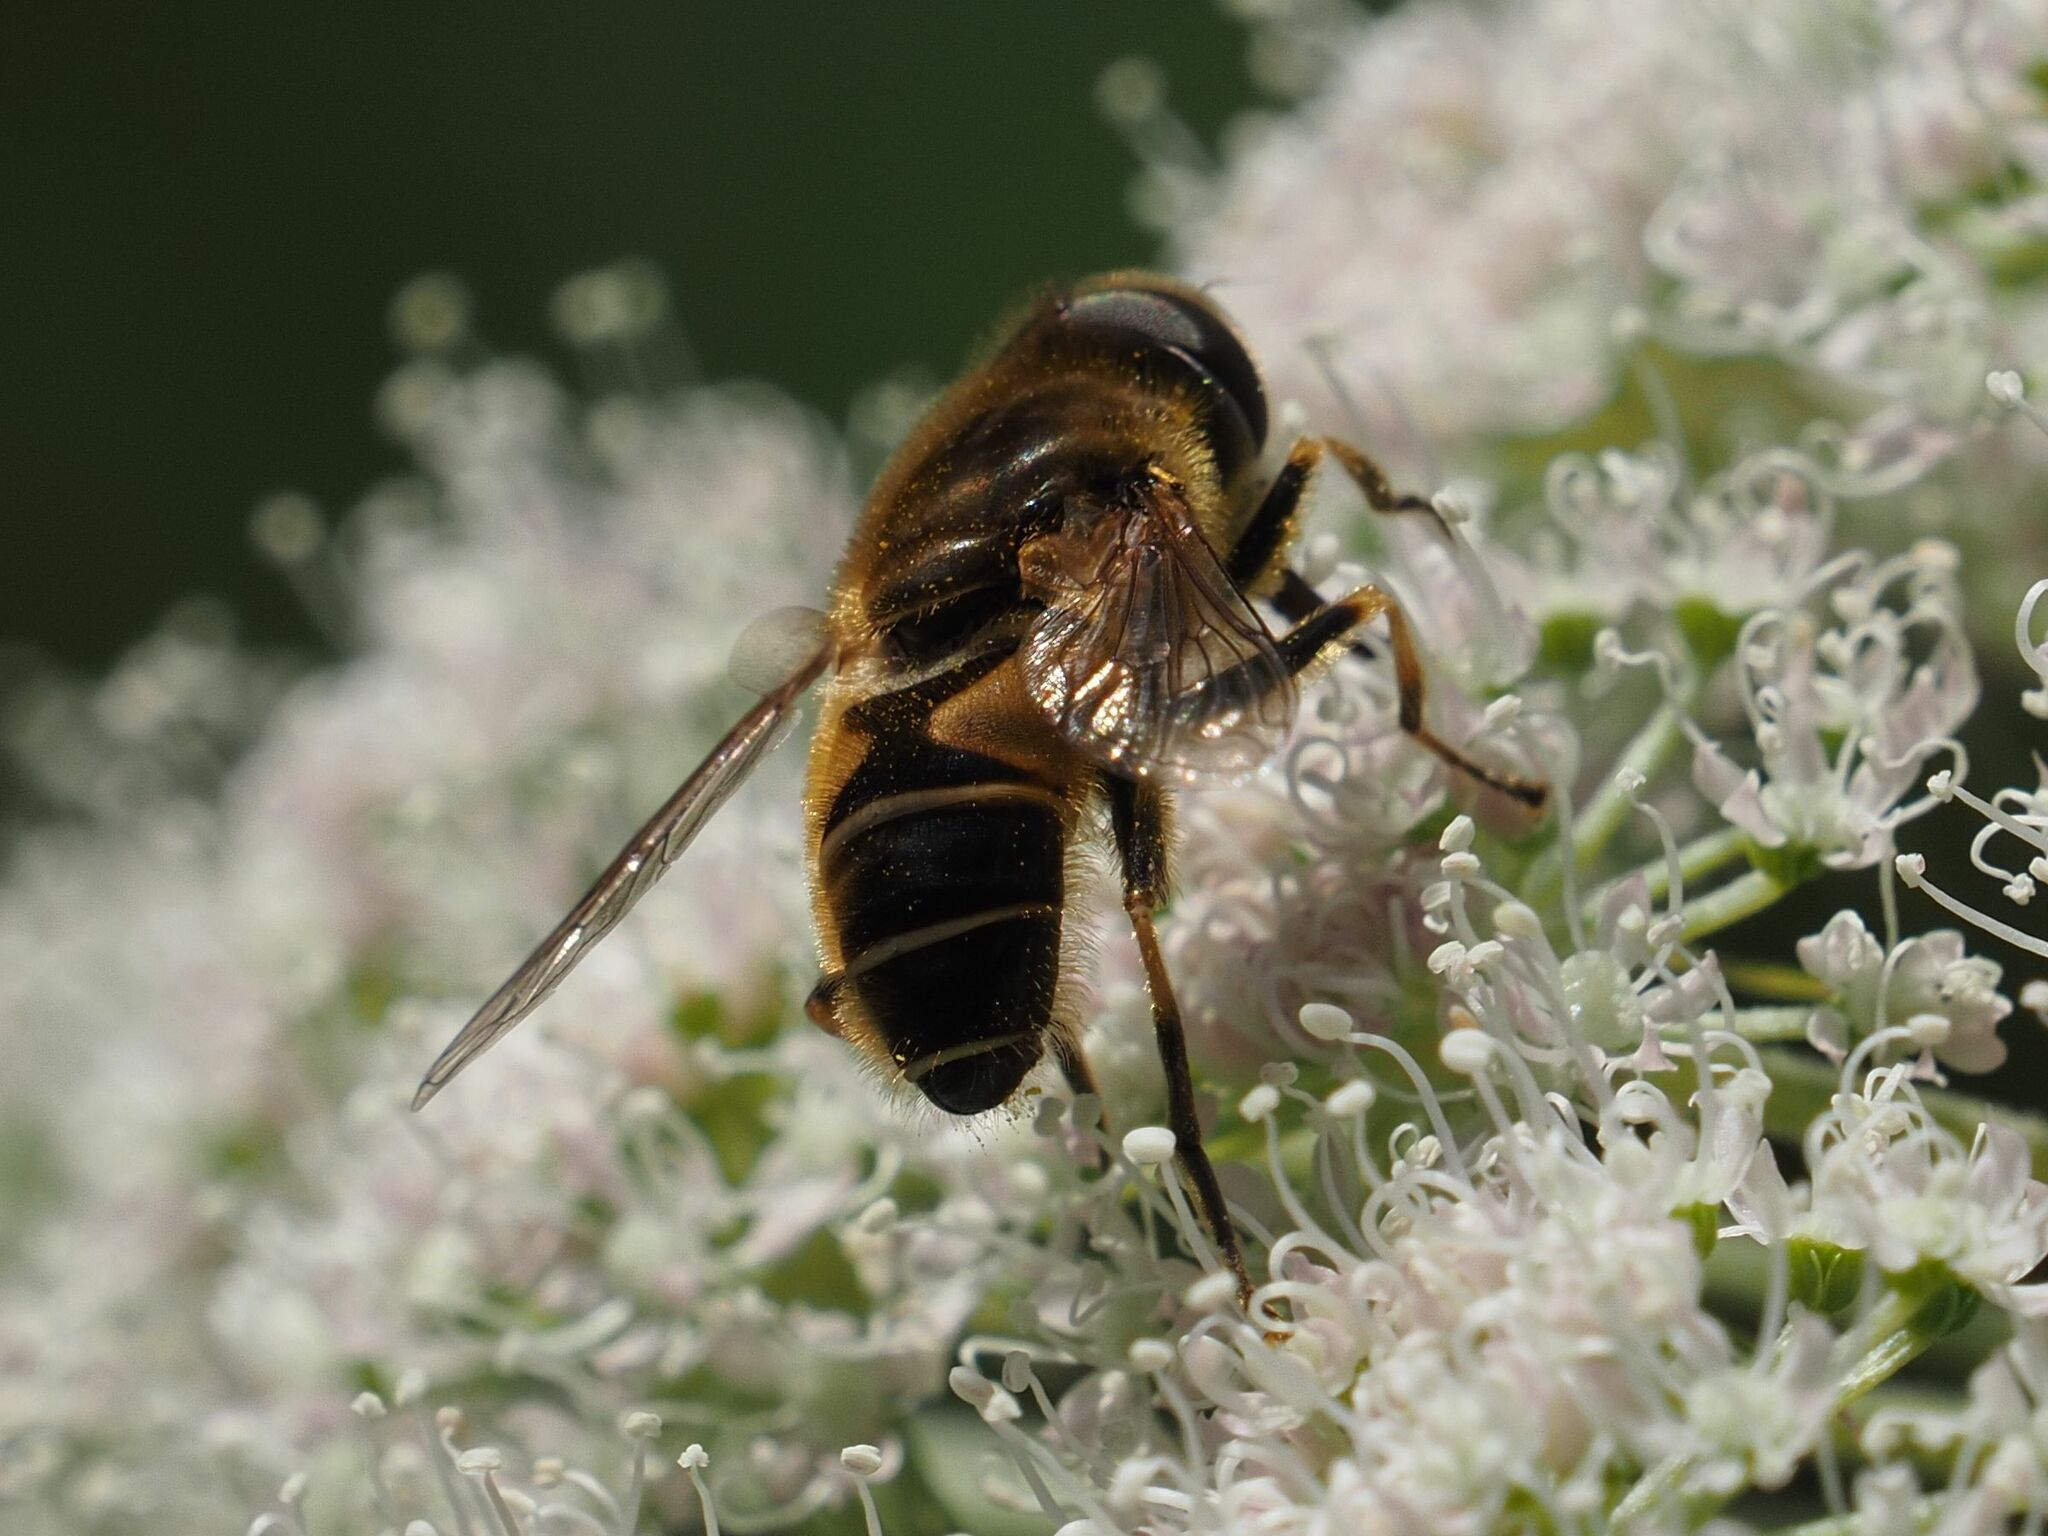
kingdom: Animalia
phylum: Arthropoda
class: Insecta
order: Diptera
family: Syrphidae
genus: Eristalis
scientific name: Eristalis nemorum
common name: Orange-spined drone fly
